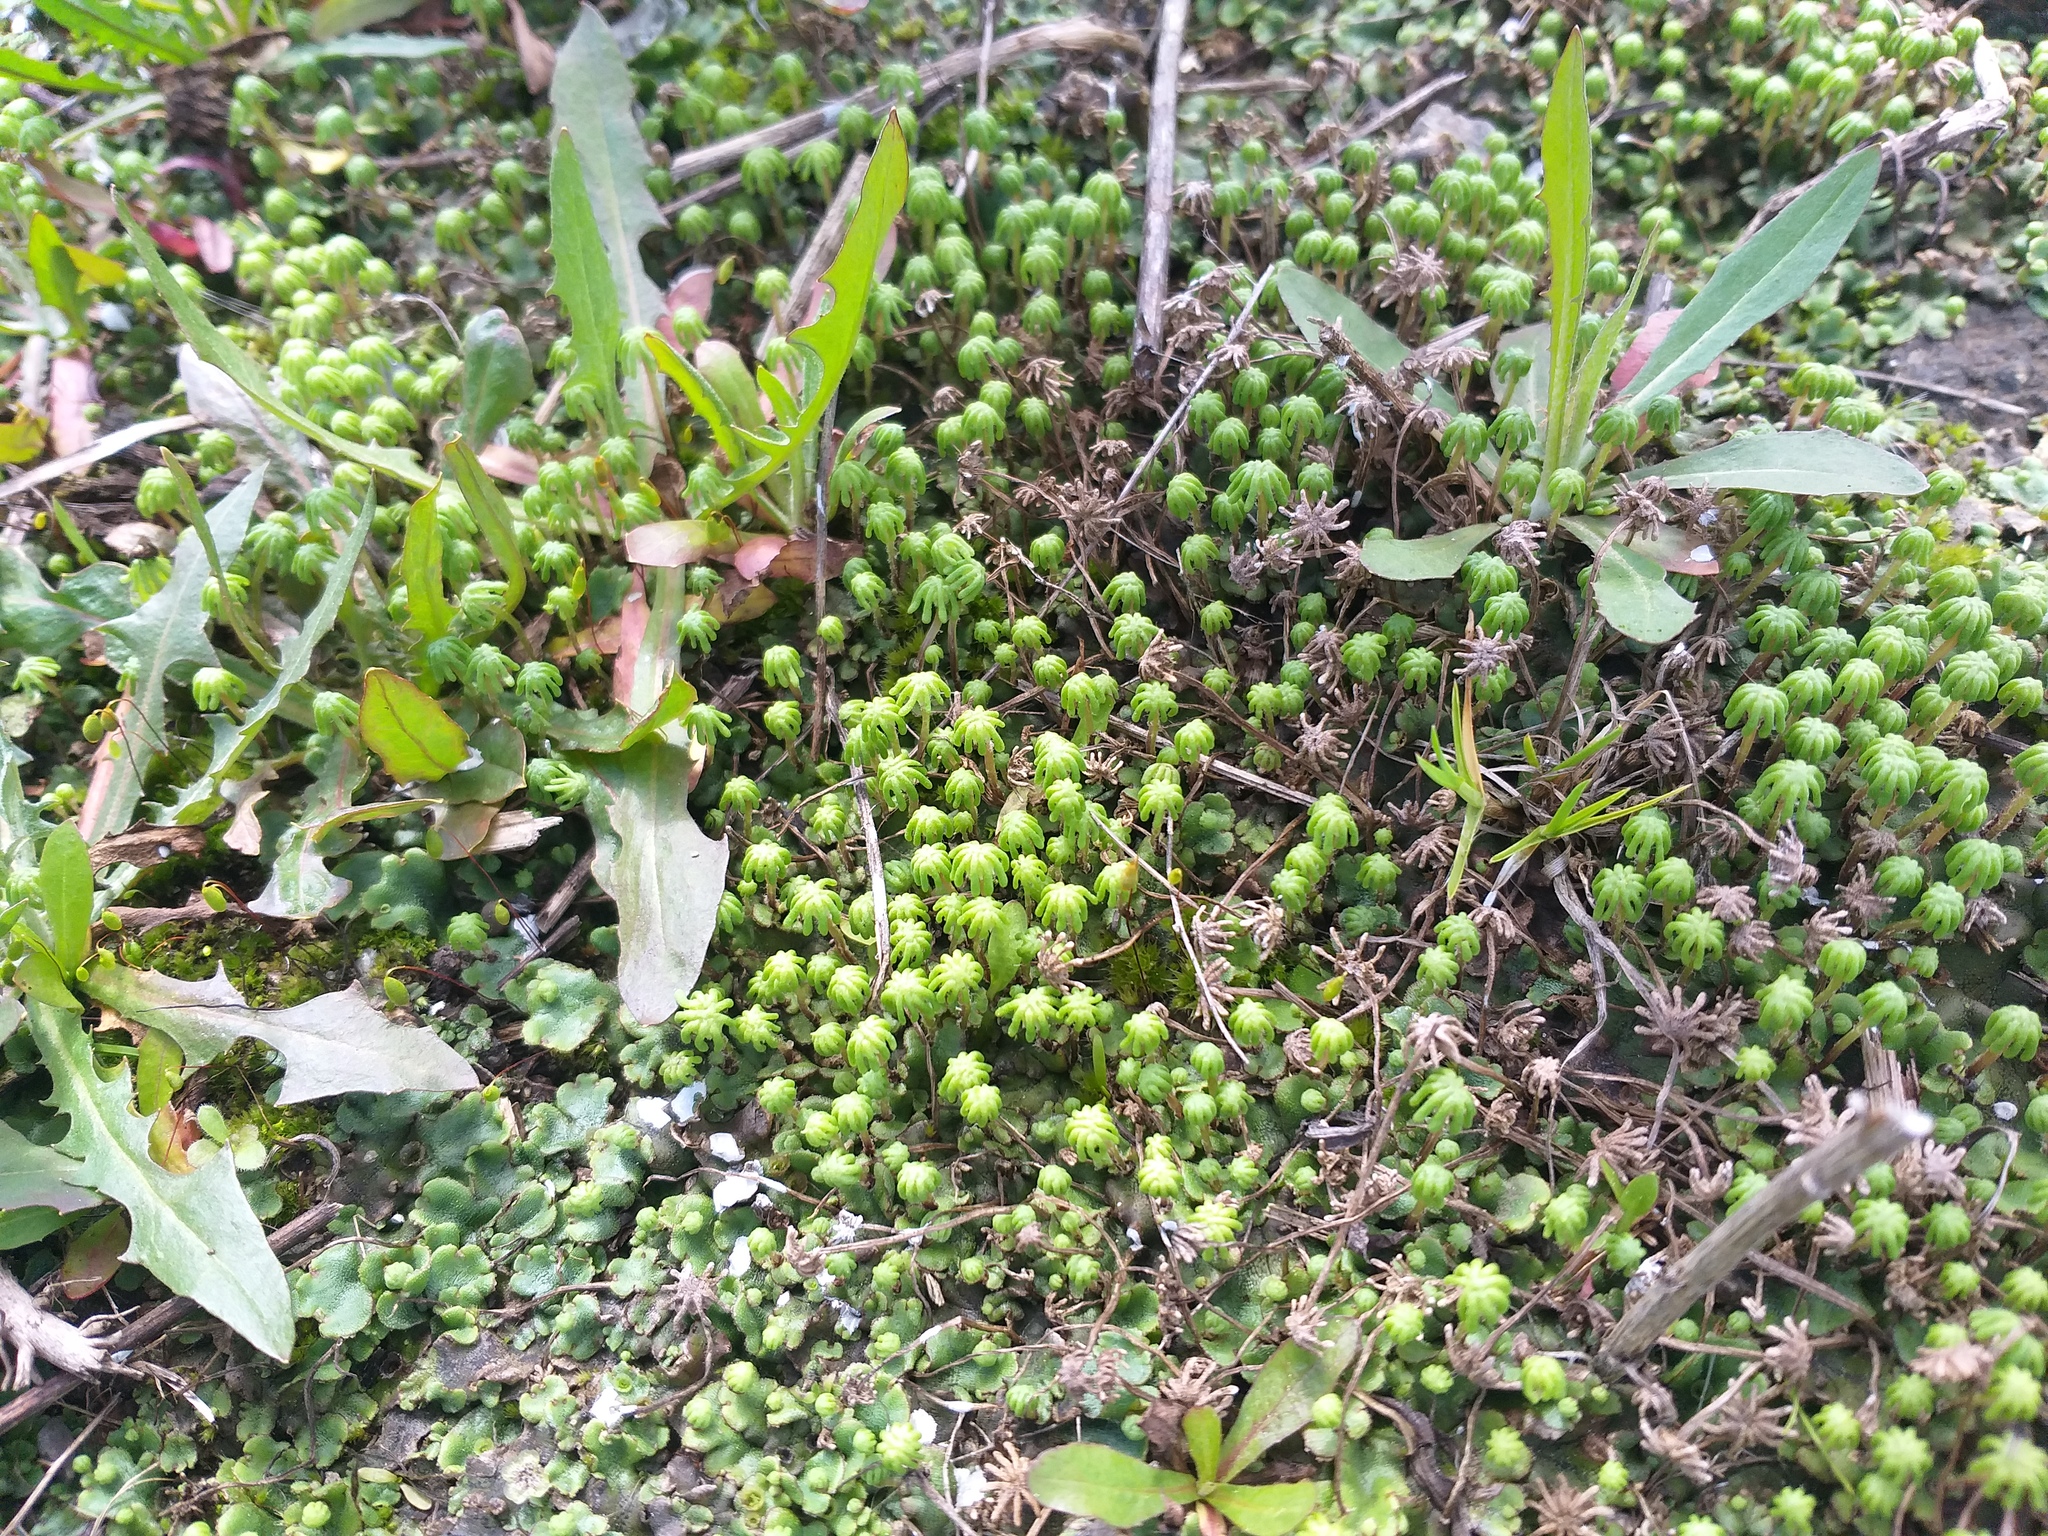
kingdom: Plantae
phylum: Marchantiophyta
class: Marchantiopsida
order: Marchantiales
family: Marchantiaceae
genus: Marchantia
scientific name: Marchantia polymorpha
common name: Common liverwort
